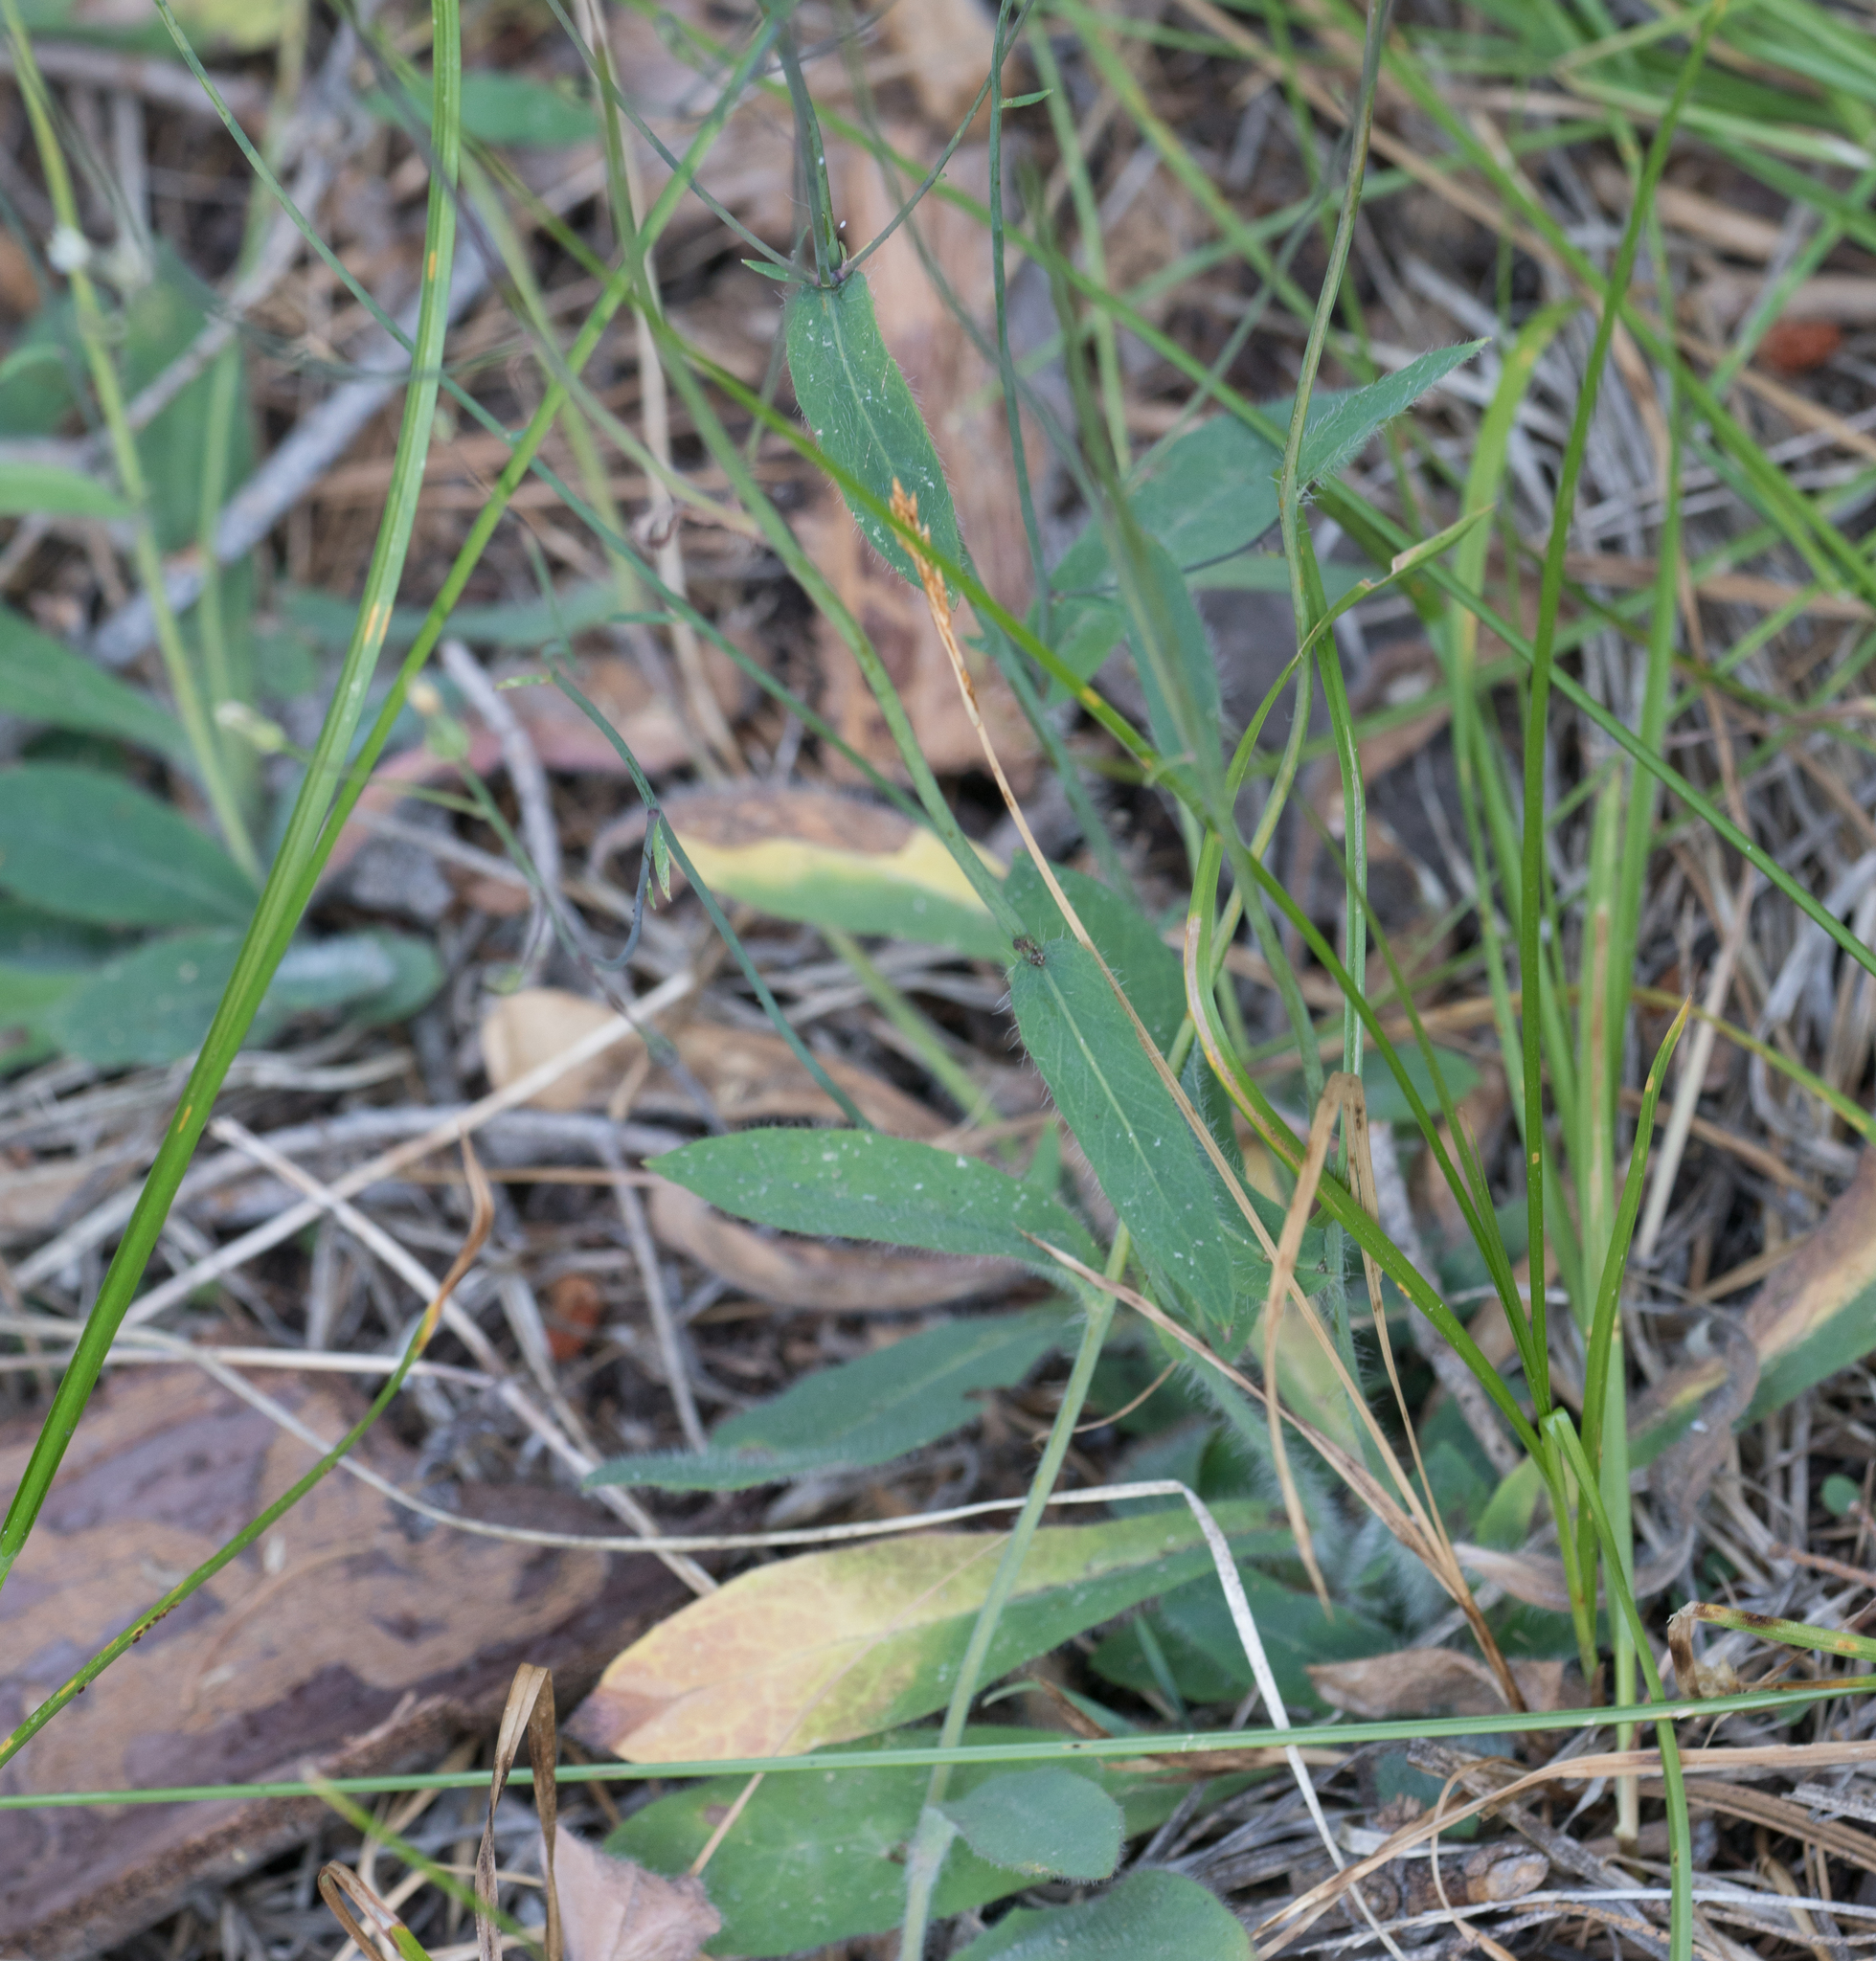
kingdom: Plantae
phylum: Tracheophyta
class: Magnoliopsida
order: Asterales
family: Asteraceae
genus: Hieracium
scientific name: Hieracium albiflorum
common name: White hawkweed
